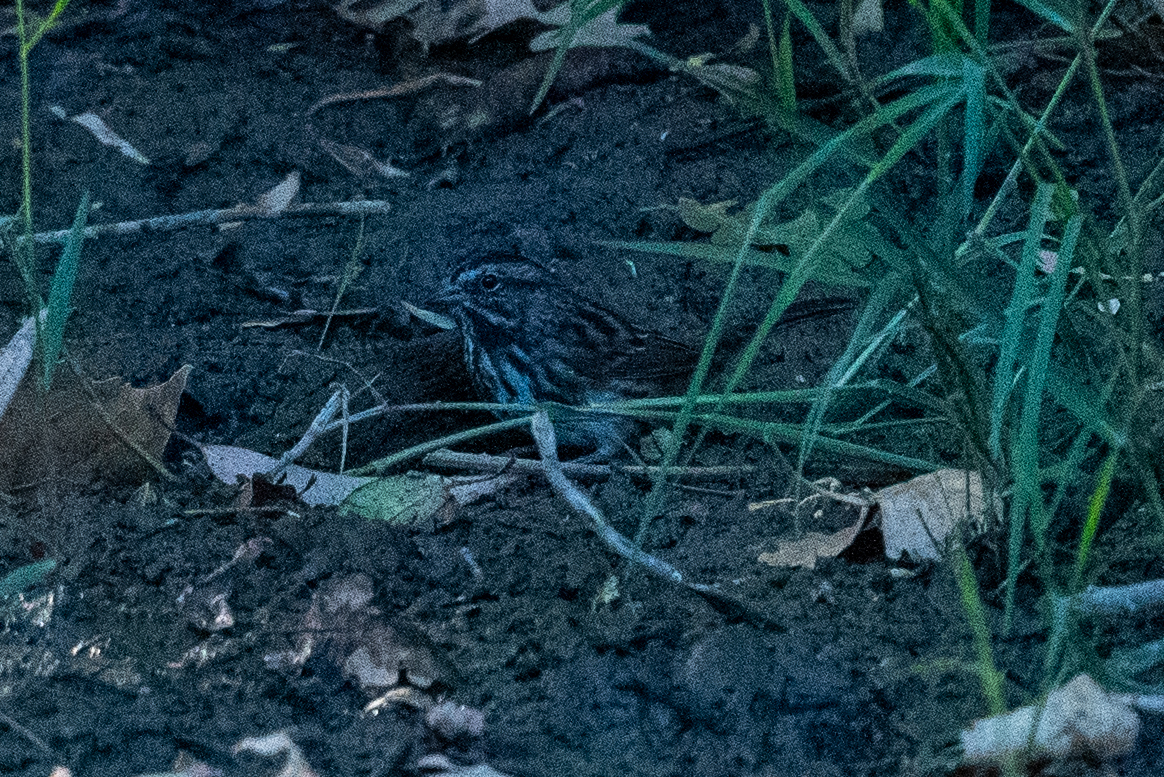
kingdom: Animalia
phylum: Chordata
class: Aves
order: Passeriformes
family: Passerellidae
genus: Melospiza
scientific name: Melospiza melodia
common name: Song sparrow
